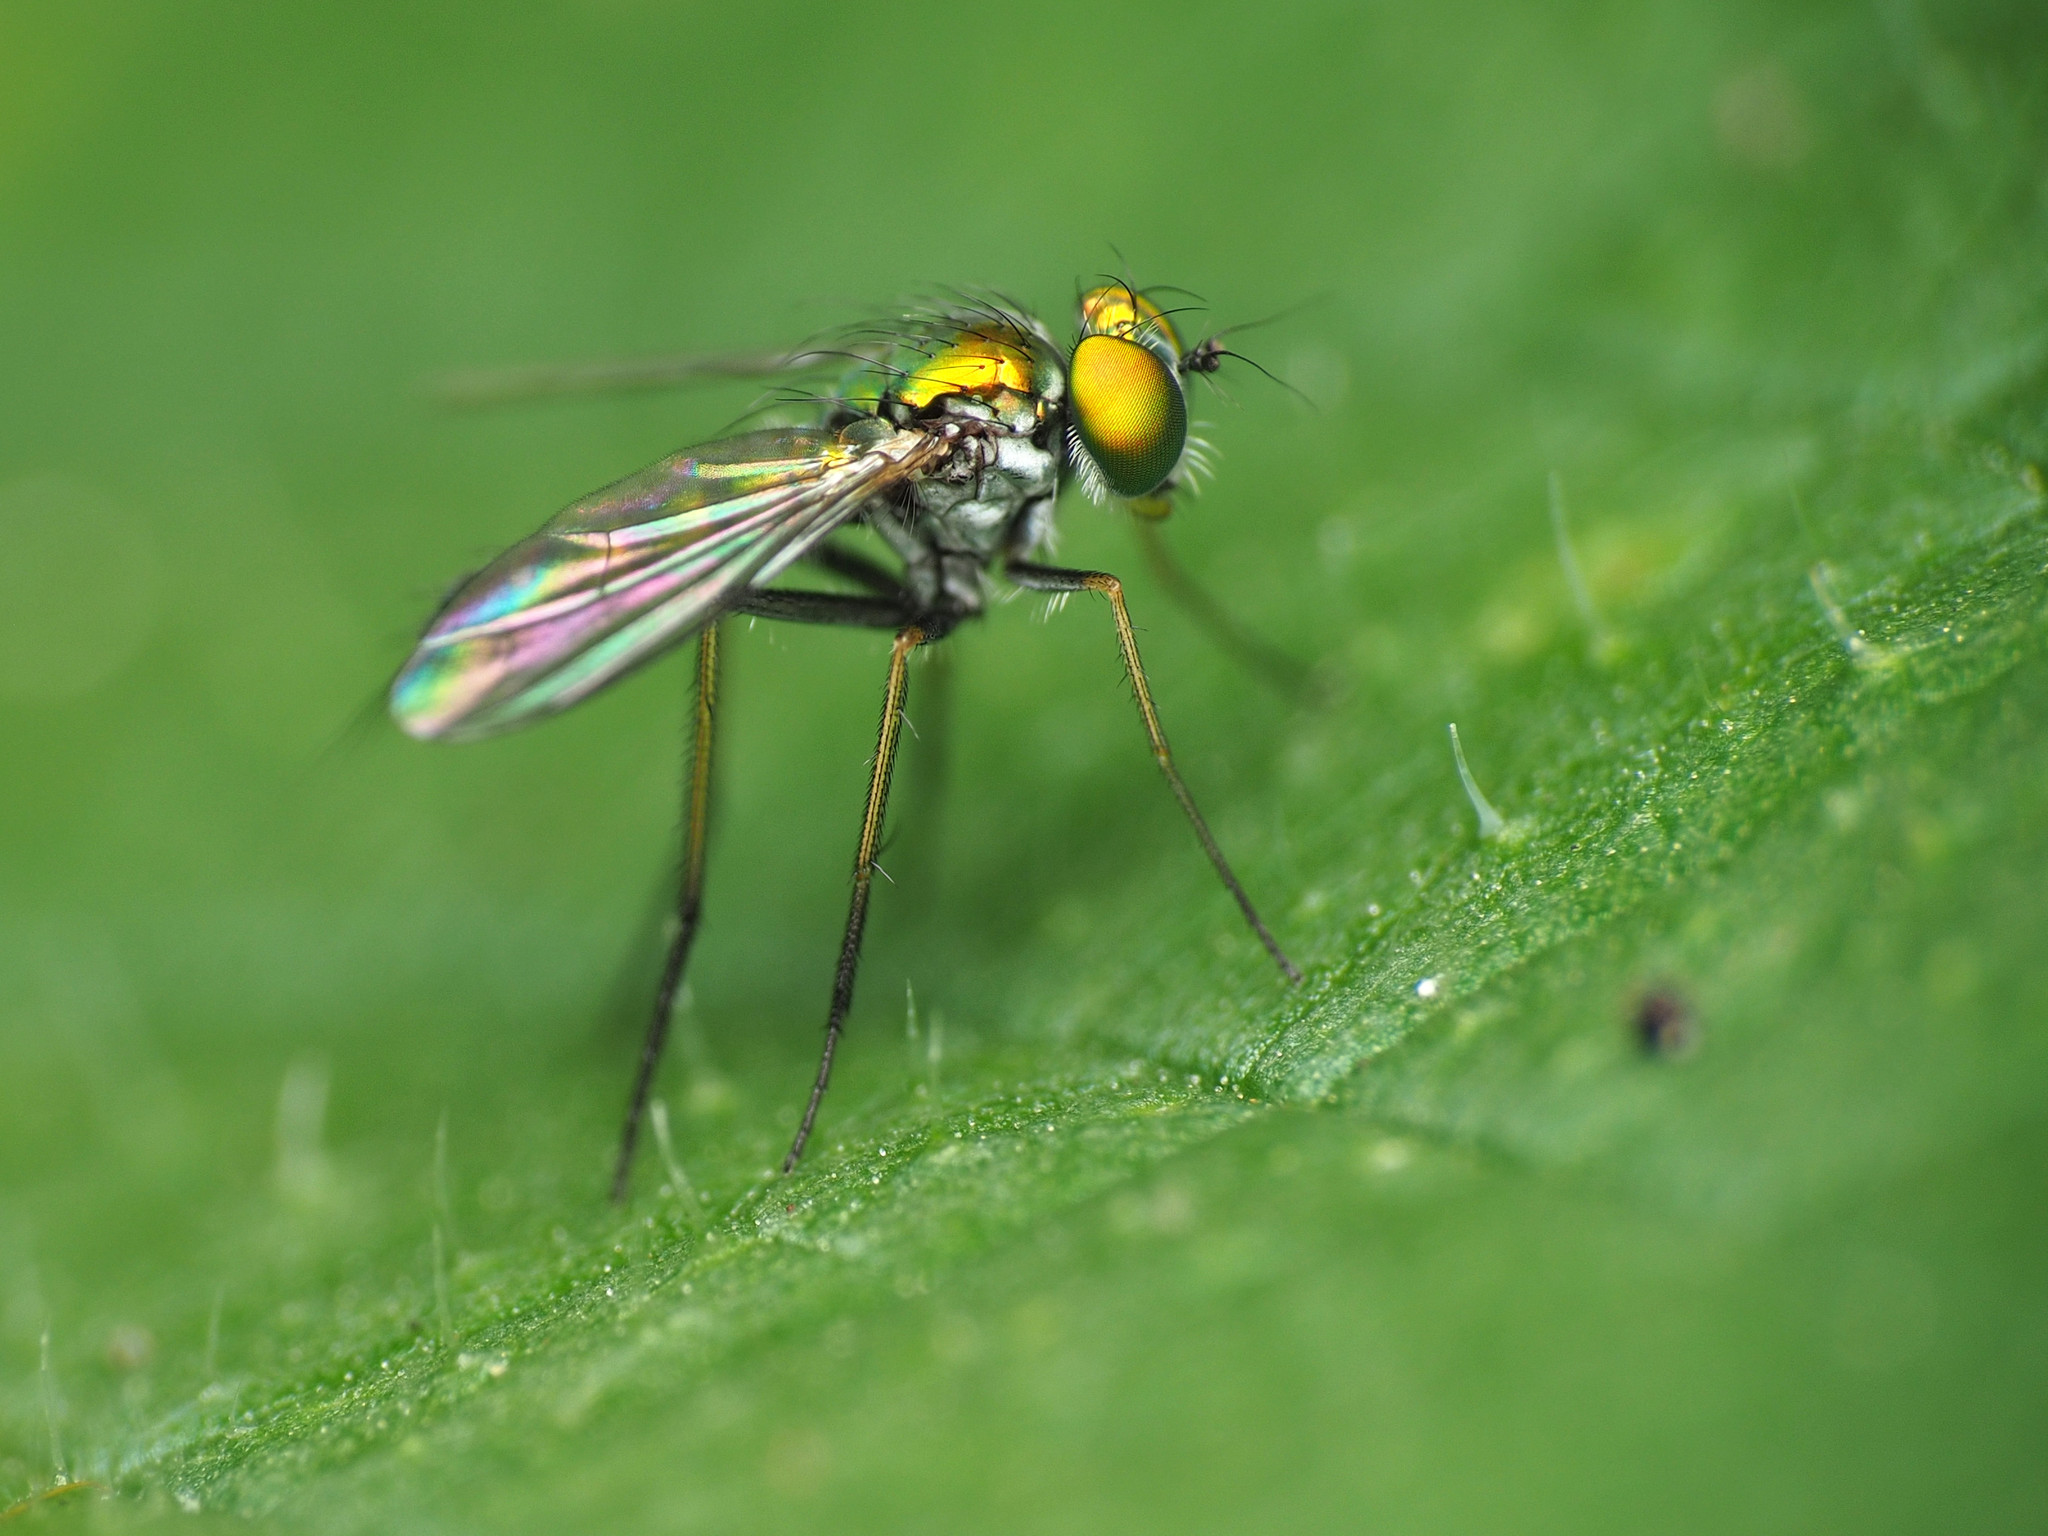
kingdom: Animalia
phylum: Arthropoda
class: Insecta
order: Diptera
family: Dolichopodidae
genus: Condylostylus
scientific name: Condylostylus caudatus
